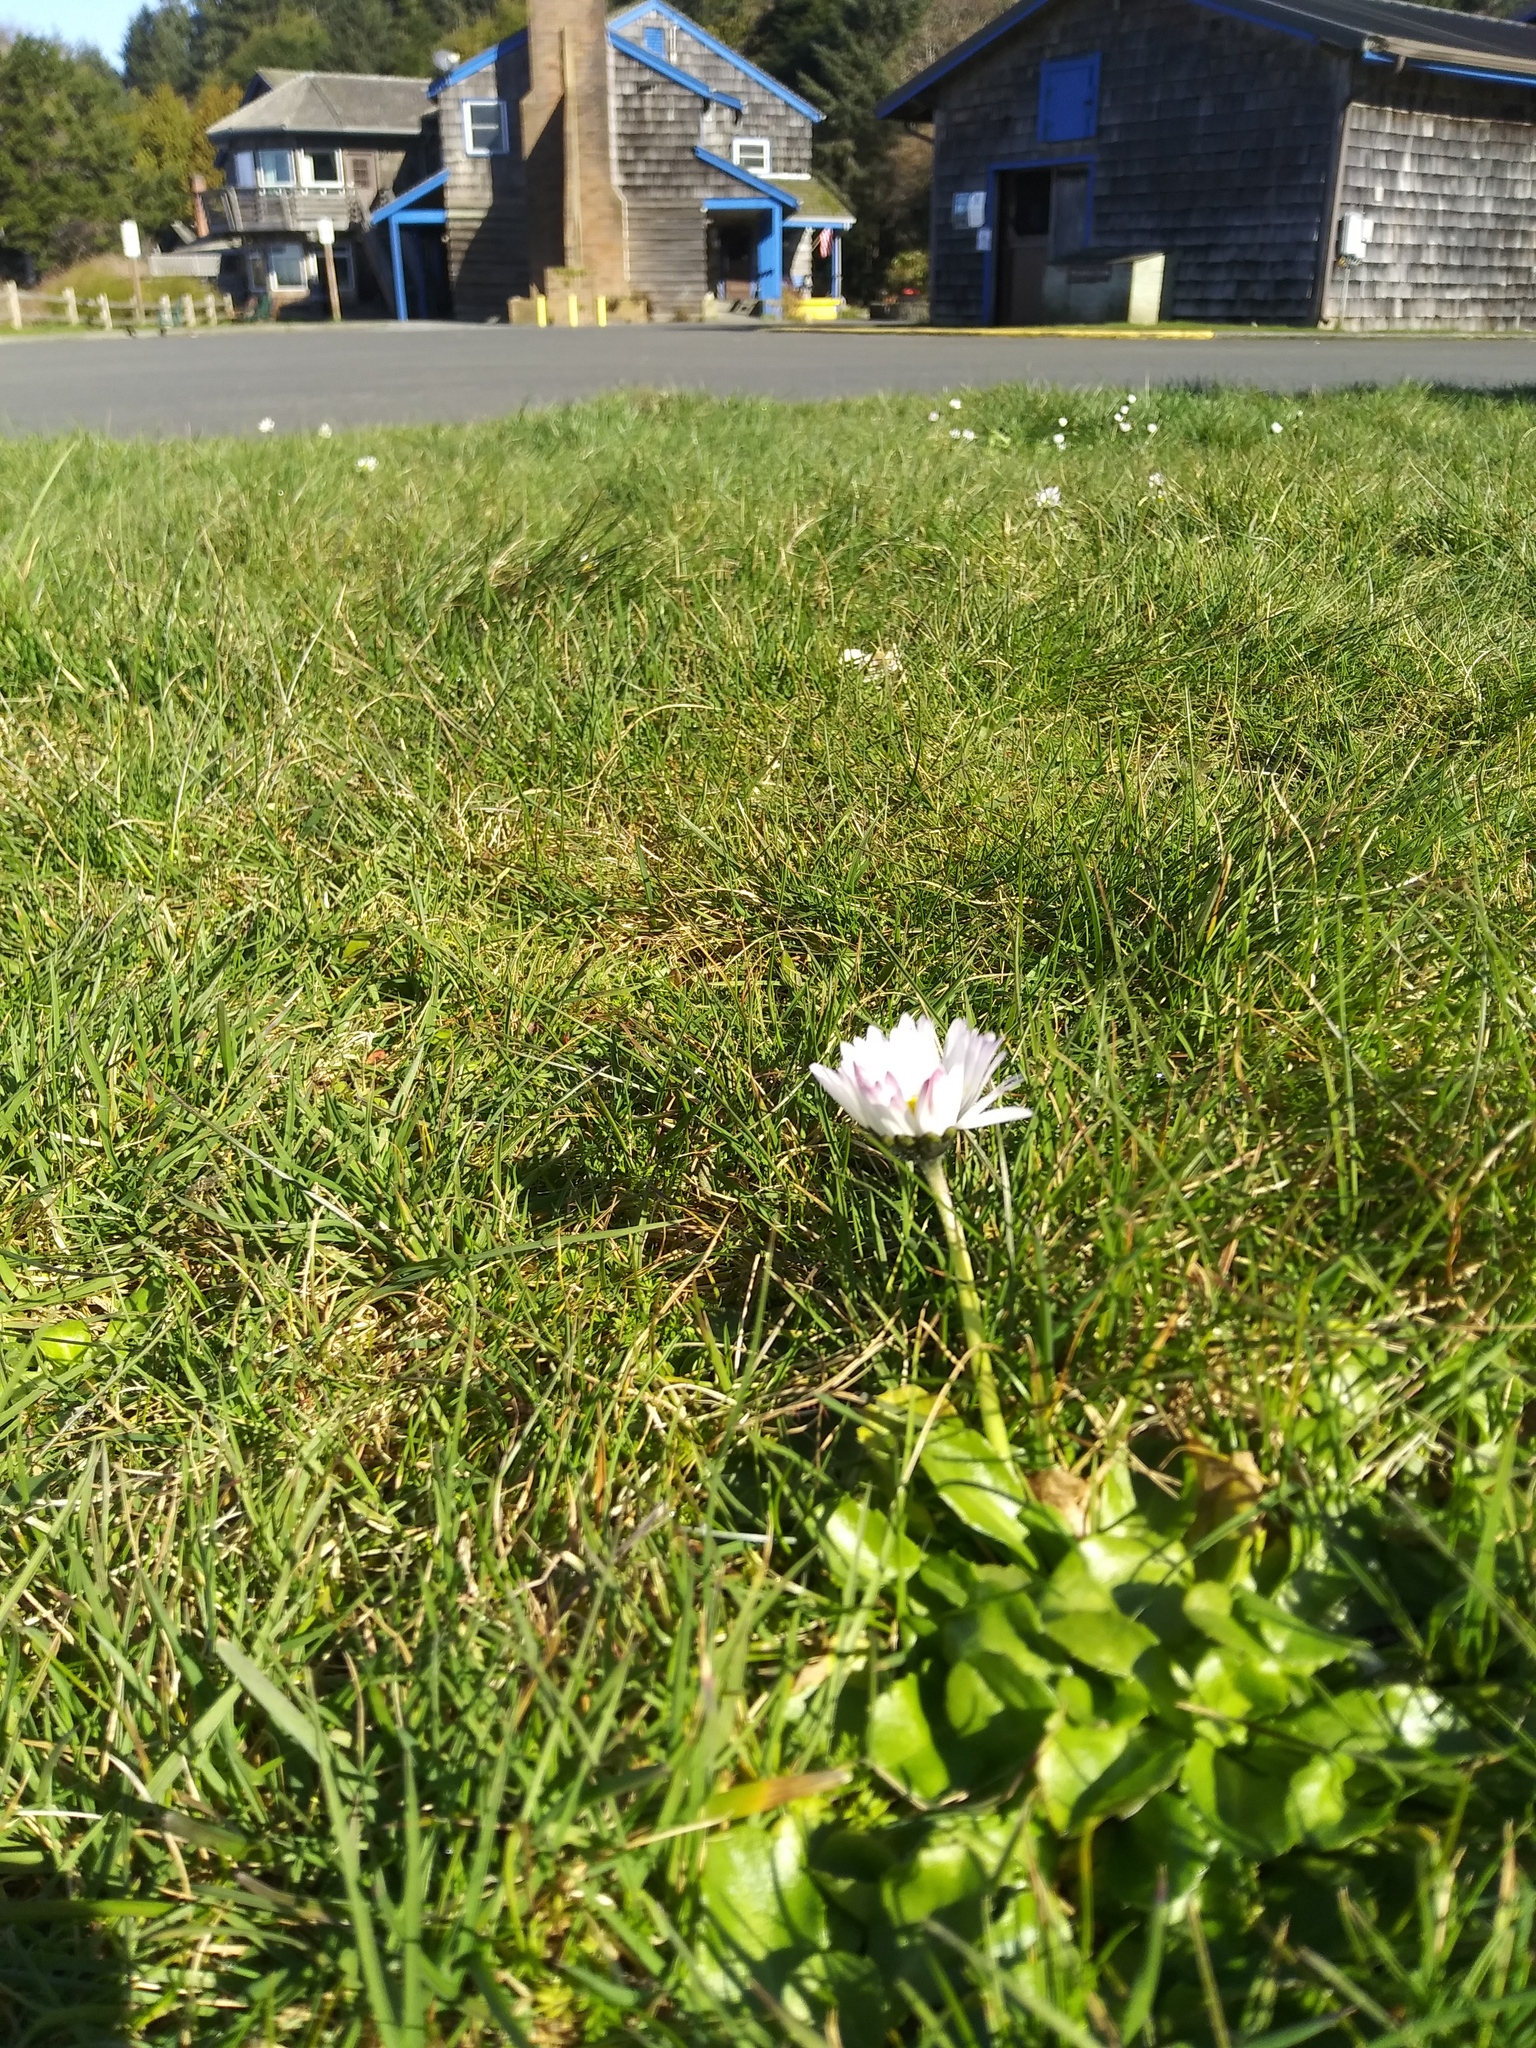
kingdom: Plantae
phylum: Tracheophyta
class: Magnoliopsida
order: Asterales
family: Asteraceae
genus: Bellis
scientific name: Bellis perennis
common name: Lawndaisy
